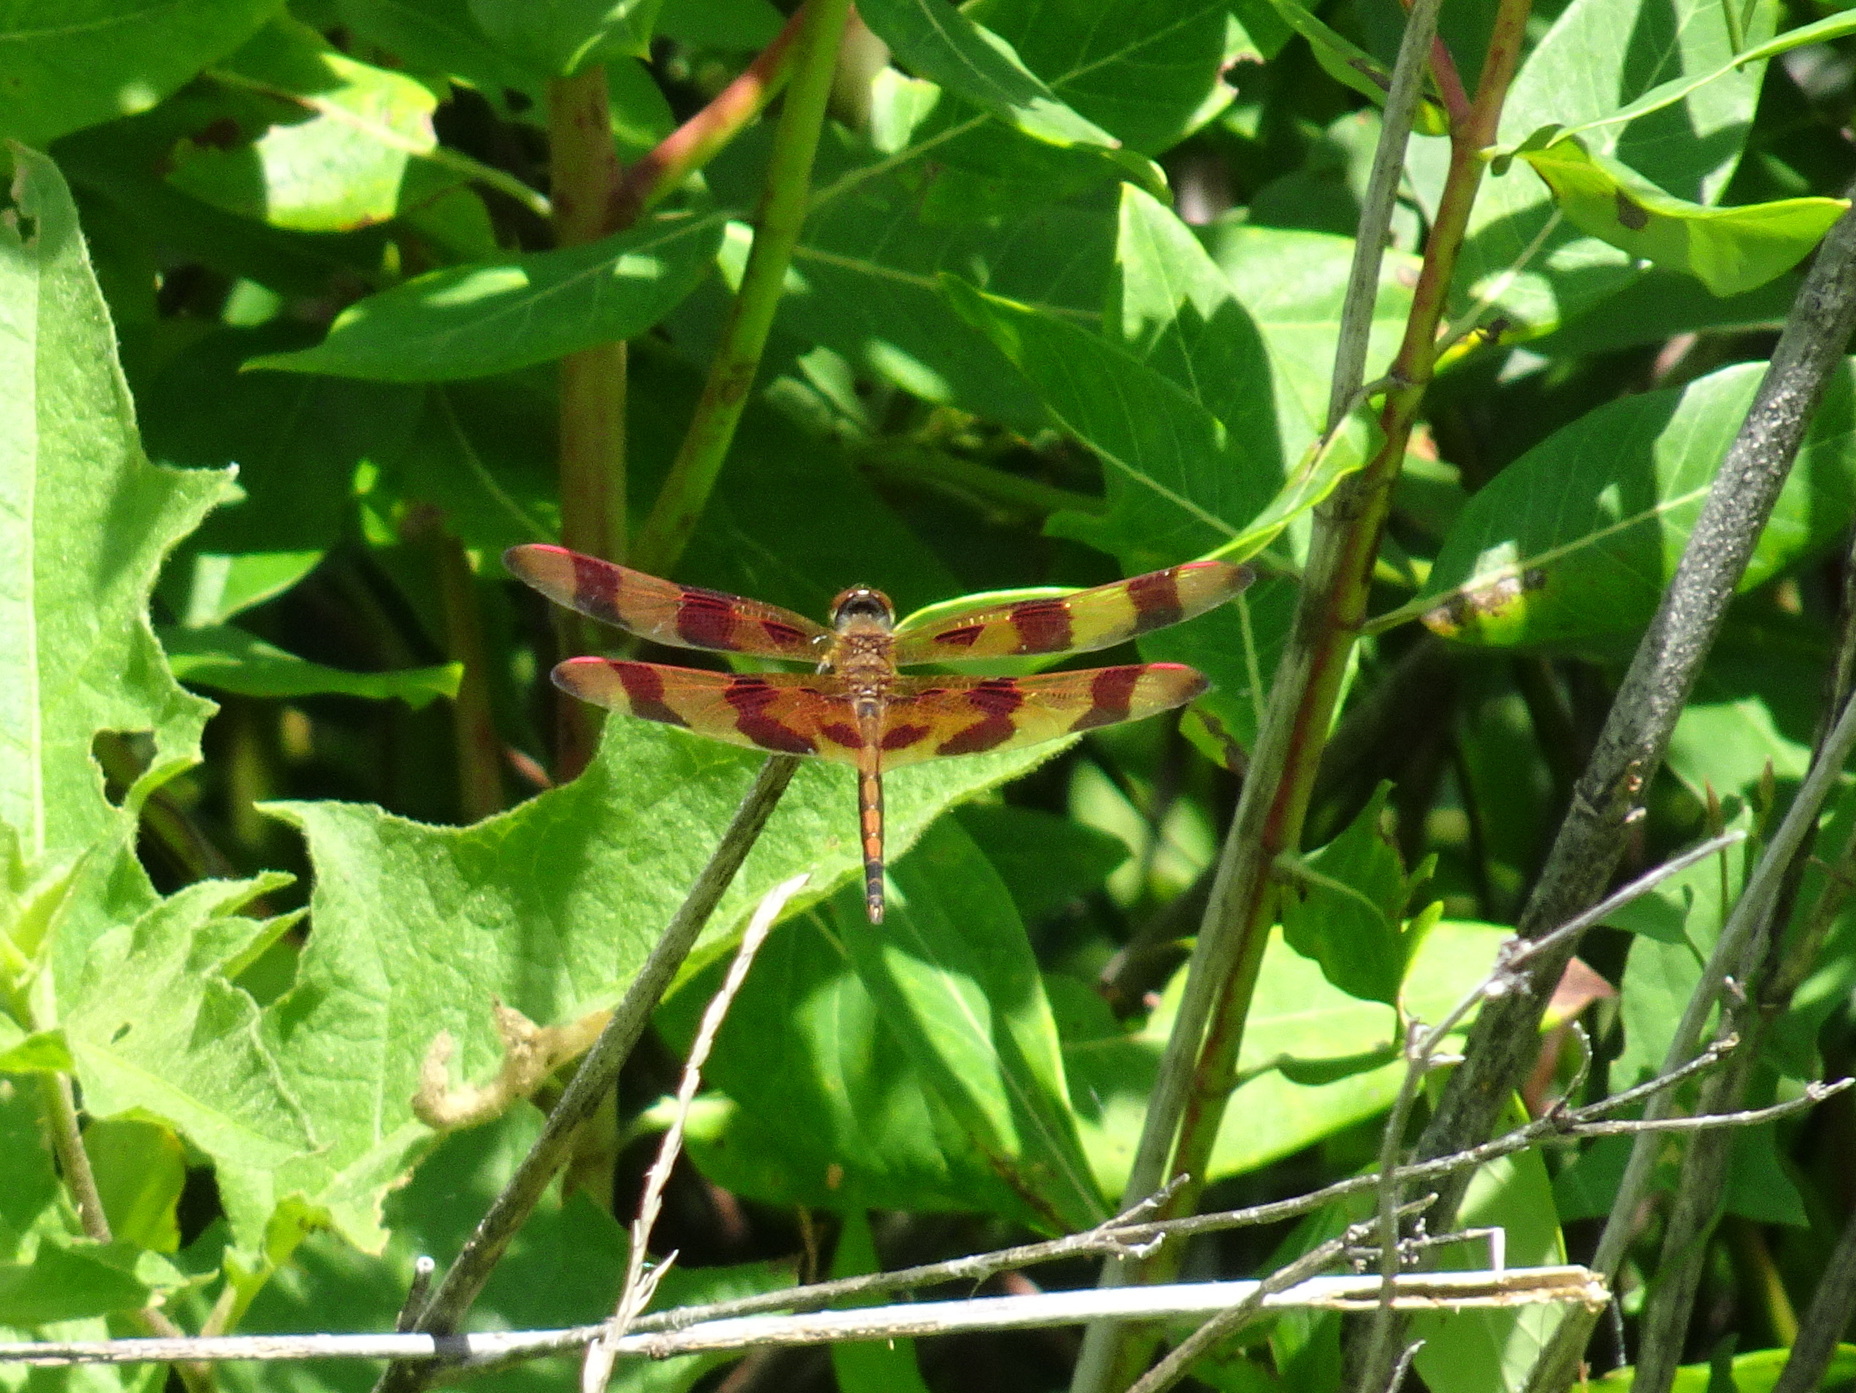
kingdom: Animalia
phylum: Arthropoda
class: Insecta
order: Odonata
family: Libellulidae
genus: Celithemis
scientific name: Celithemis eponina
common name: Halloween pennant
